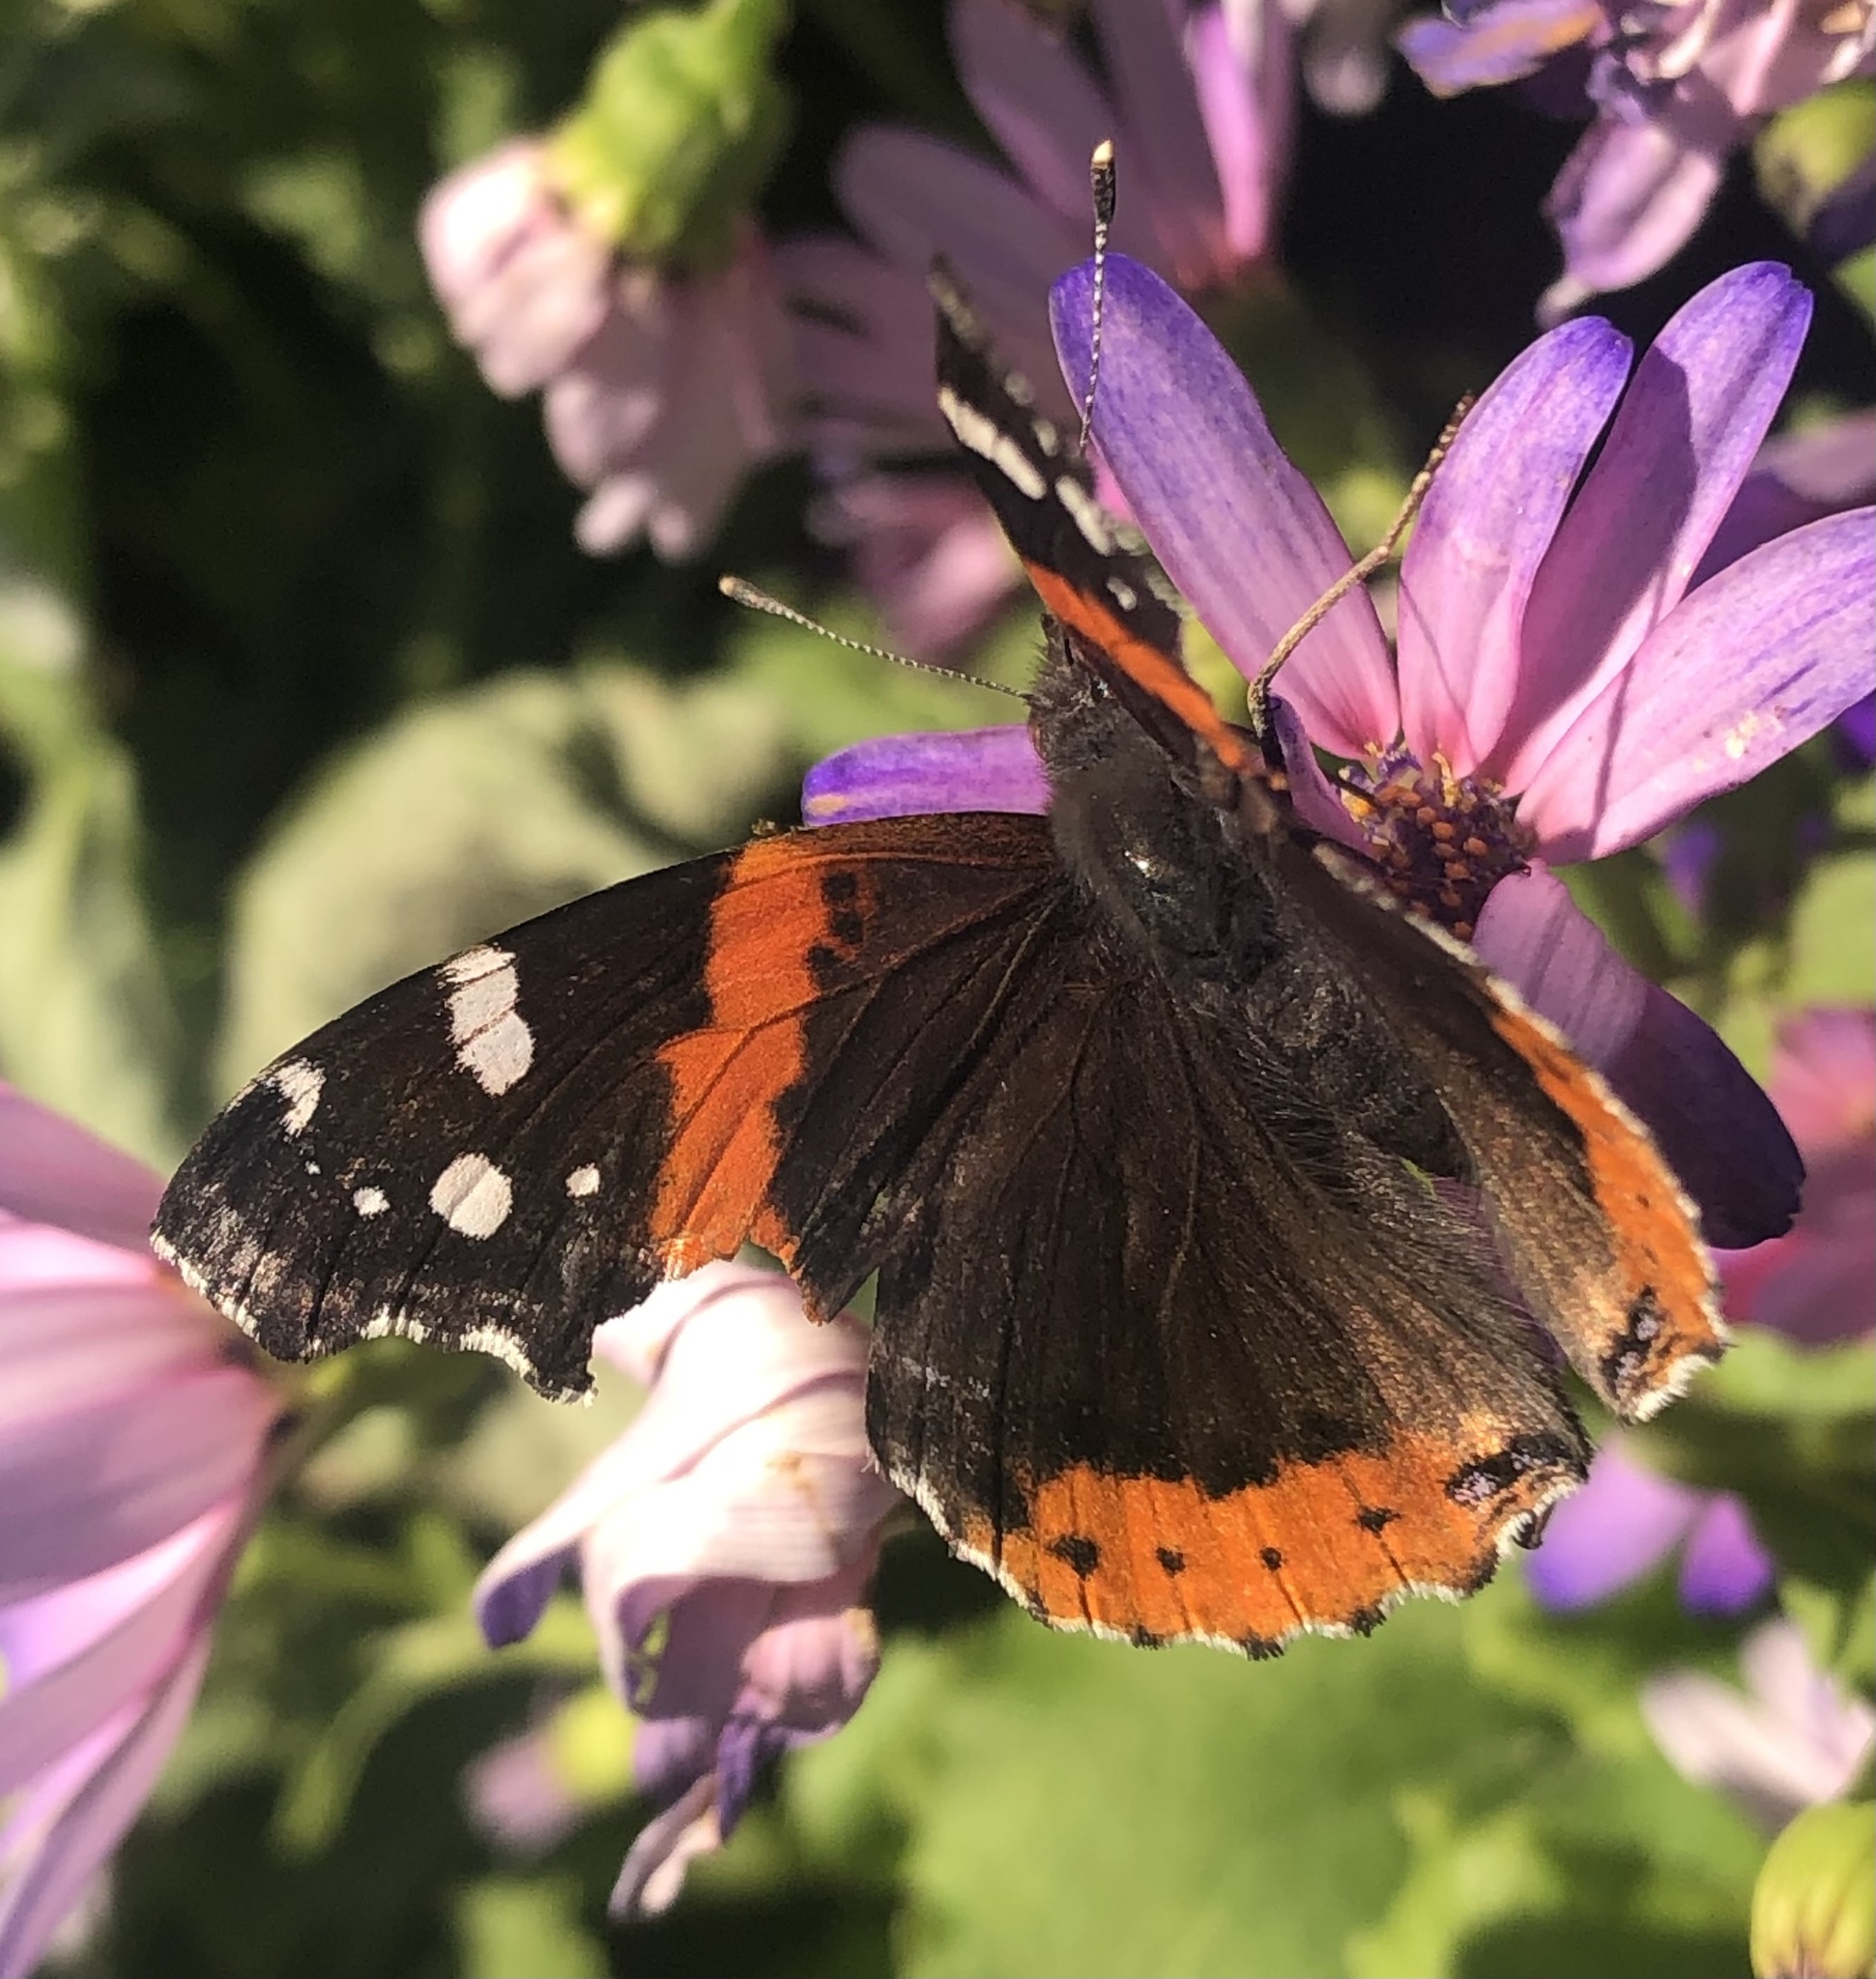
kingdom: Animalia
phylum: Arthropoda
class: Insecta
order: Lepidoptera
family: Nymphalidae
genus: Vanessa
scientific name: Vanessa atalanta
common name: Red admiral
